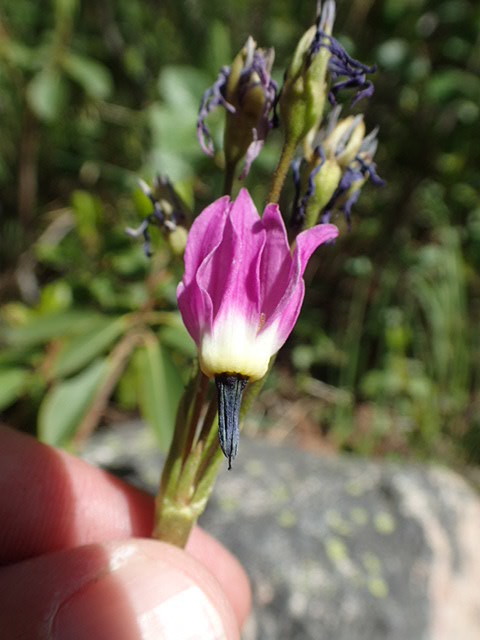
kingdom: Plantae
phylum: Tracheophyta
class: Magnoliopsida
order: Ericales
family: Primulaceae
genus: Dodecatheon
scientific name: Dodecatheon jeffreyanum
